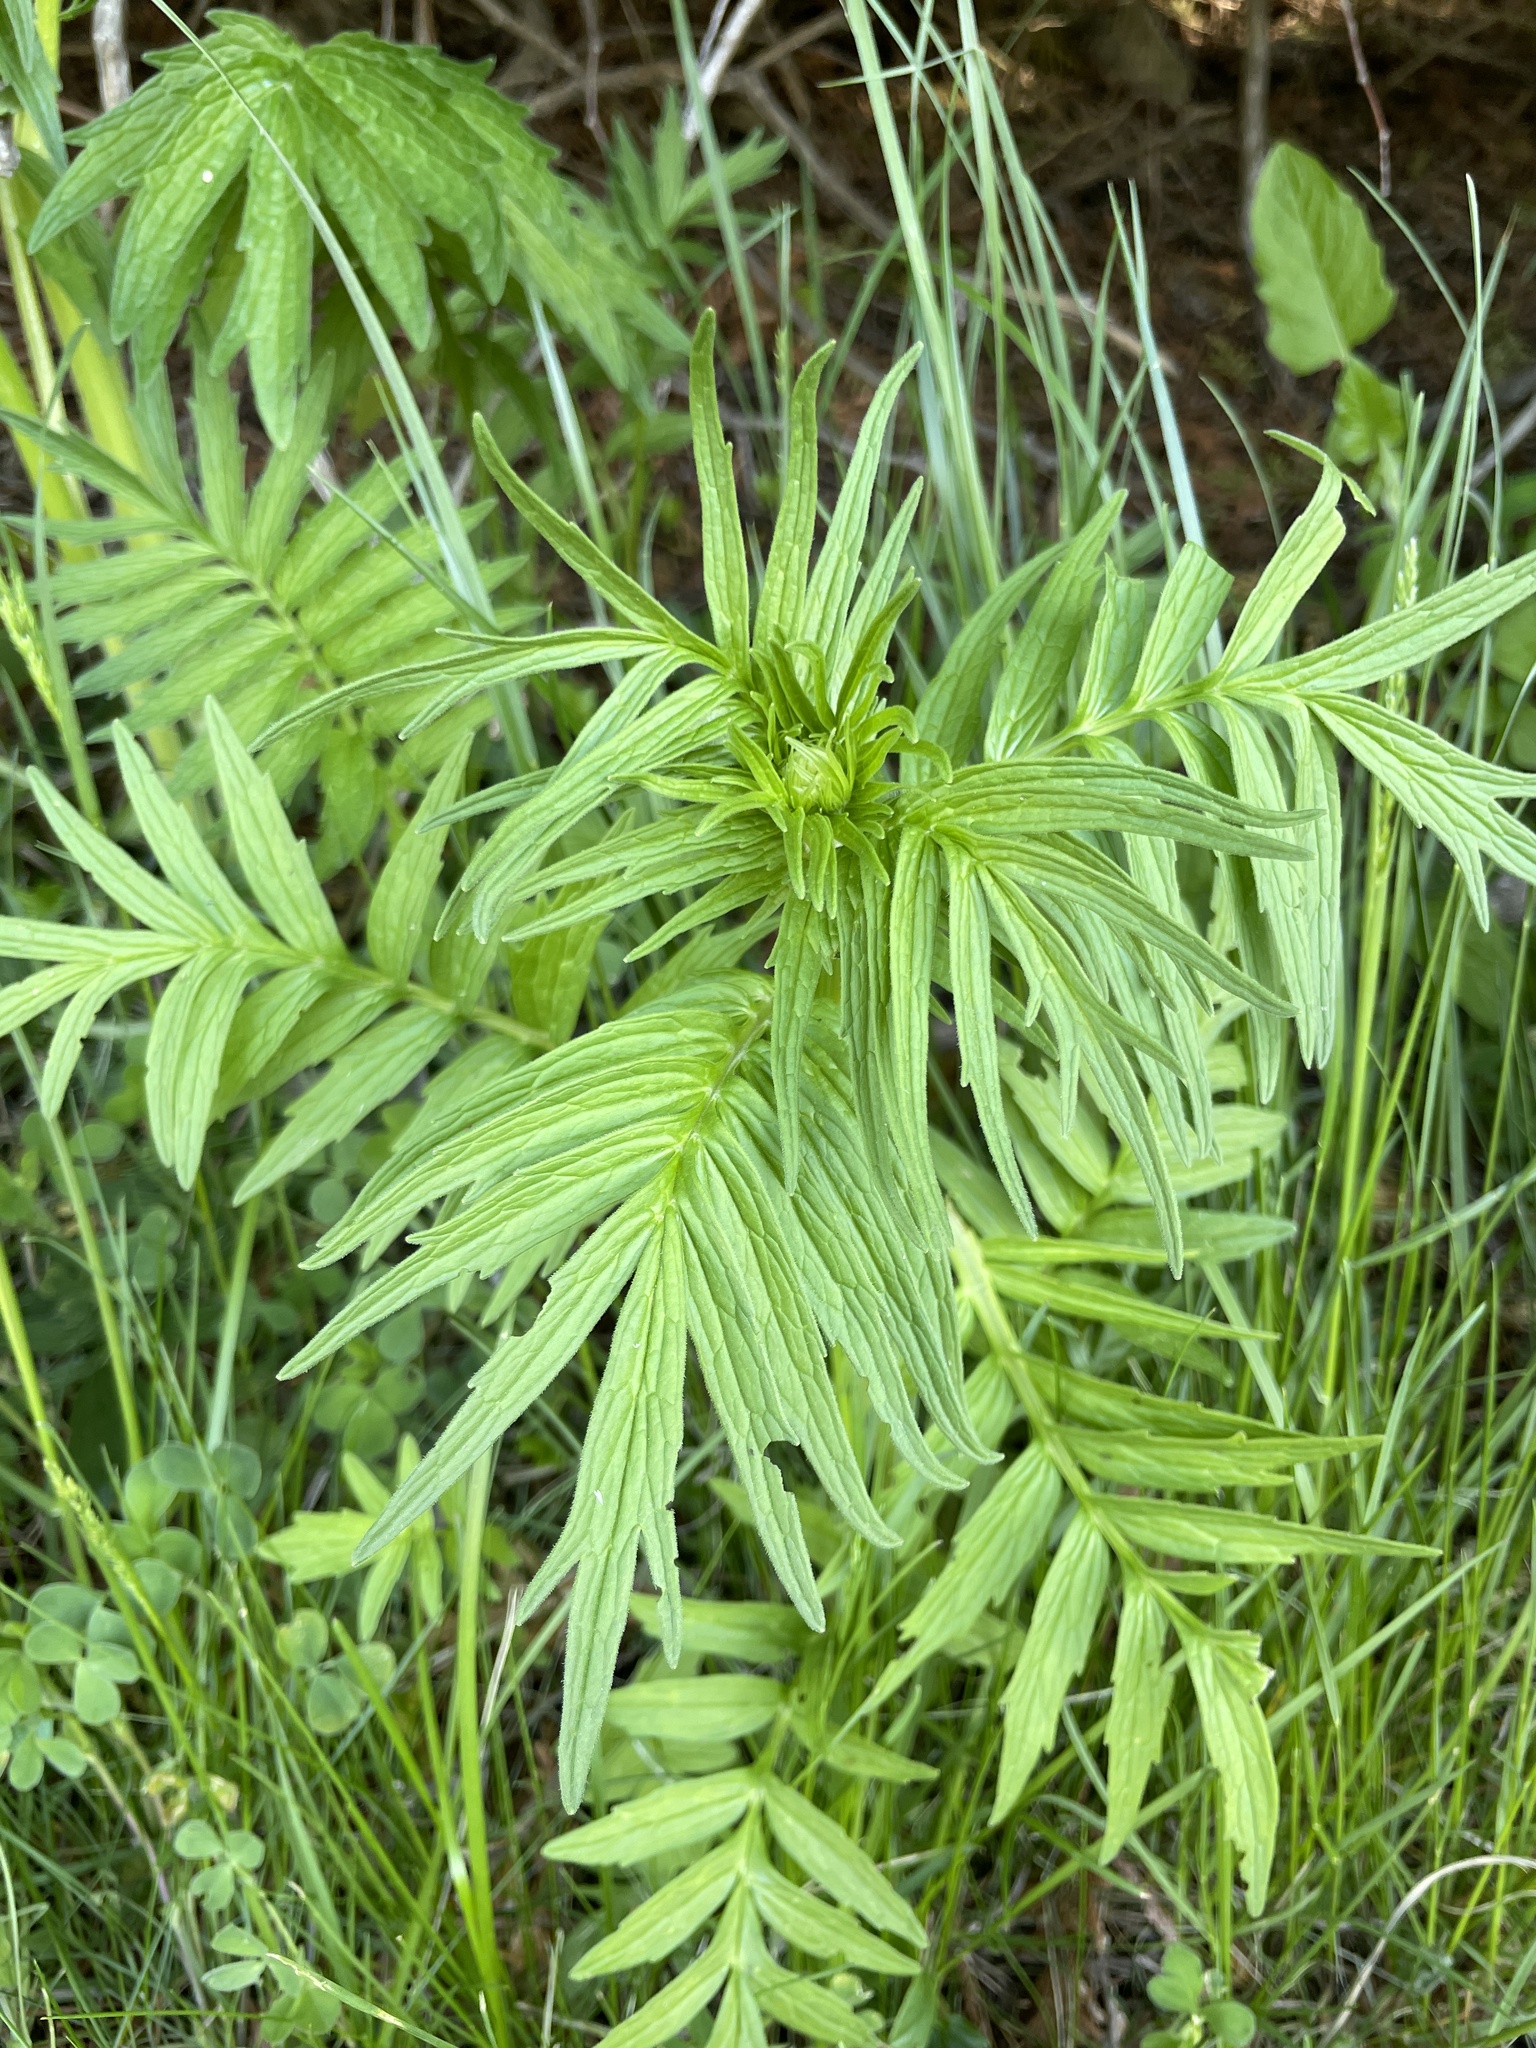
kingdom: Plantae
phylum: Tracheophyta
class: Magnoliopsida
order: Dipsacales
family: Caprifoliaceae
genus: Valeriana
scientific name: Valeriana officinalis
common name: Common valerian
